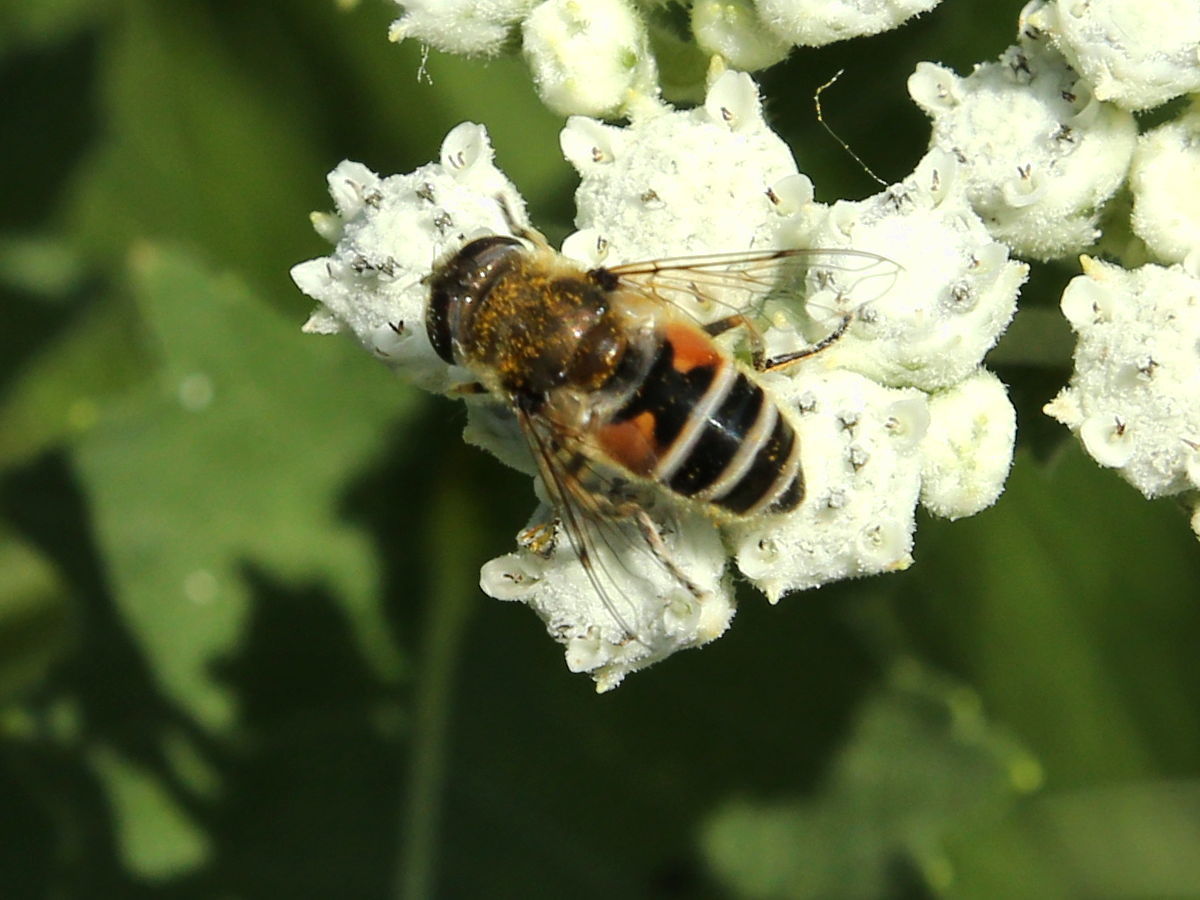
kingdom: Animalia
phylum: Arthropoda
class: Insecta
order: Diptera
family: Syrphidae
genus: Eristalis
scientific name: Eristalis arbustorum
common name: Hover fly
